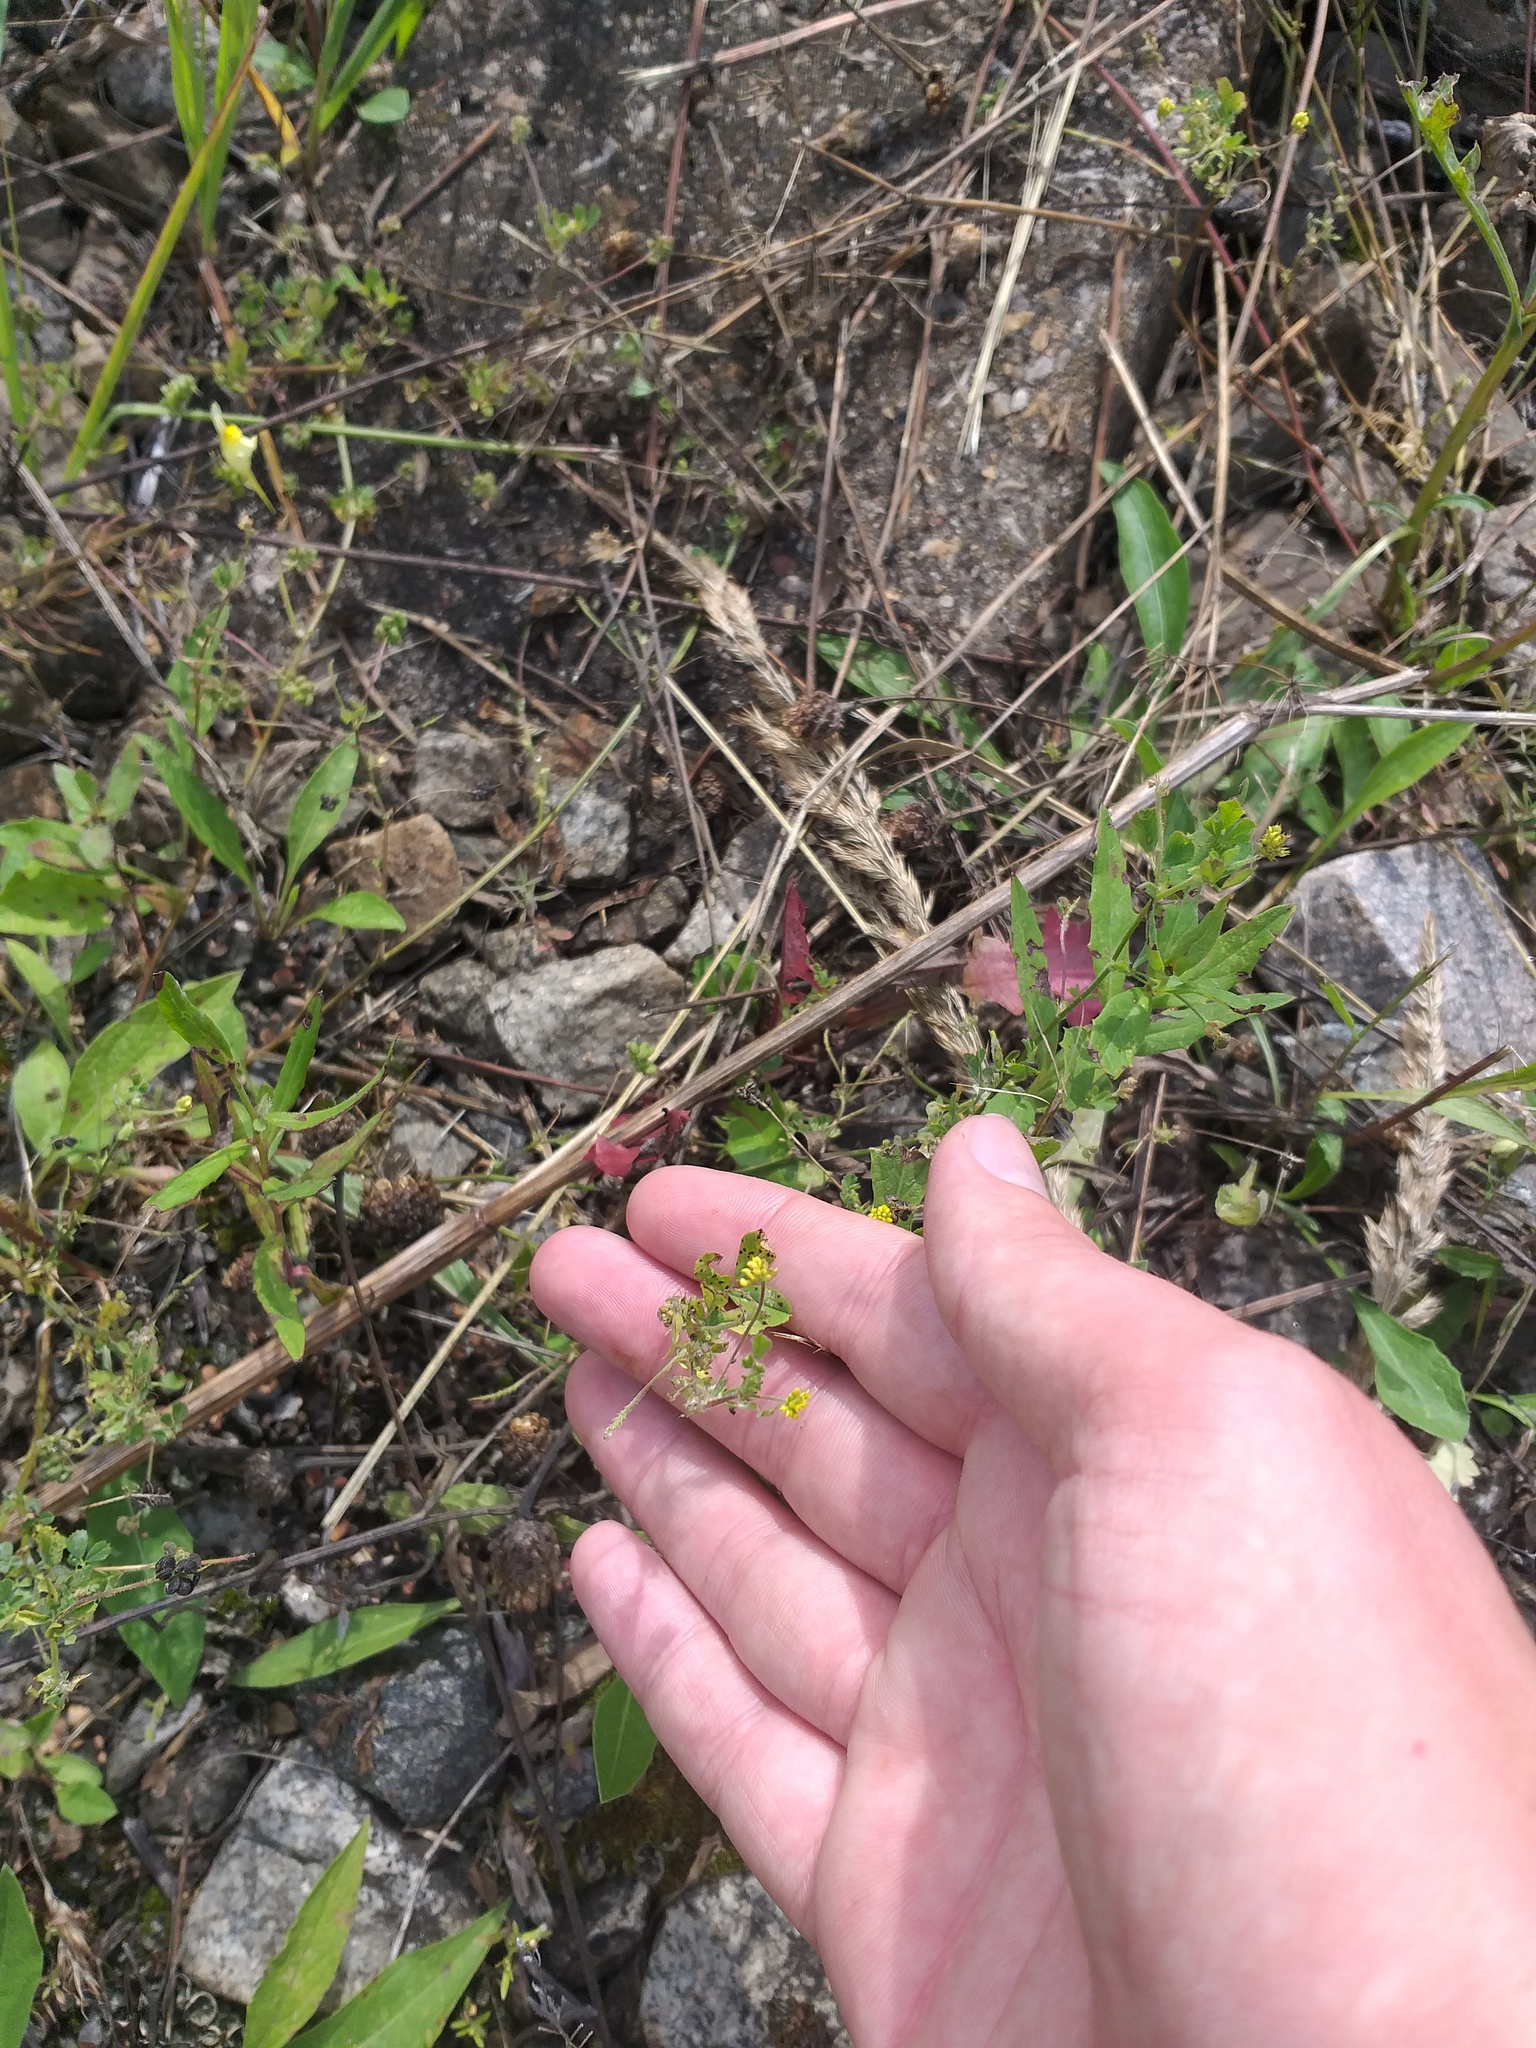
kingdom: Plantae
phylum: Tracheophyta
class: Magnoliopsida
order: Fabales
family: Fabaceae
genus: Medicago
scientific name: Medicago lupulina
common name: Black medick
